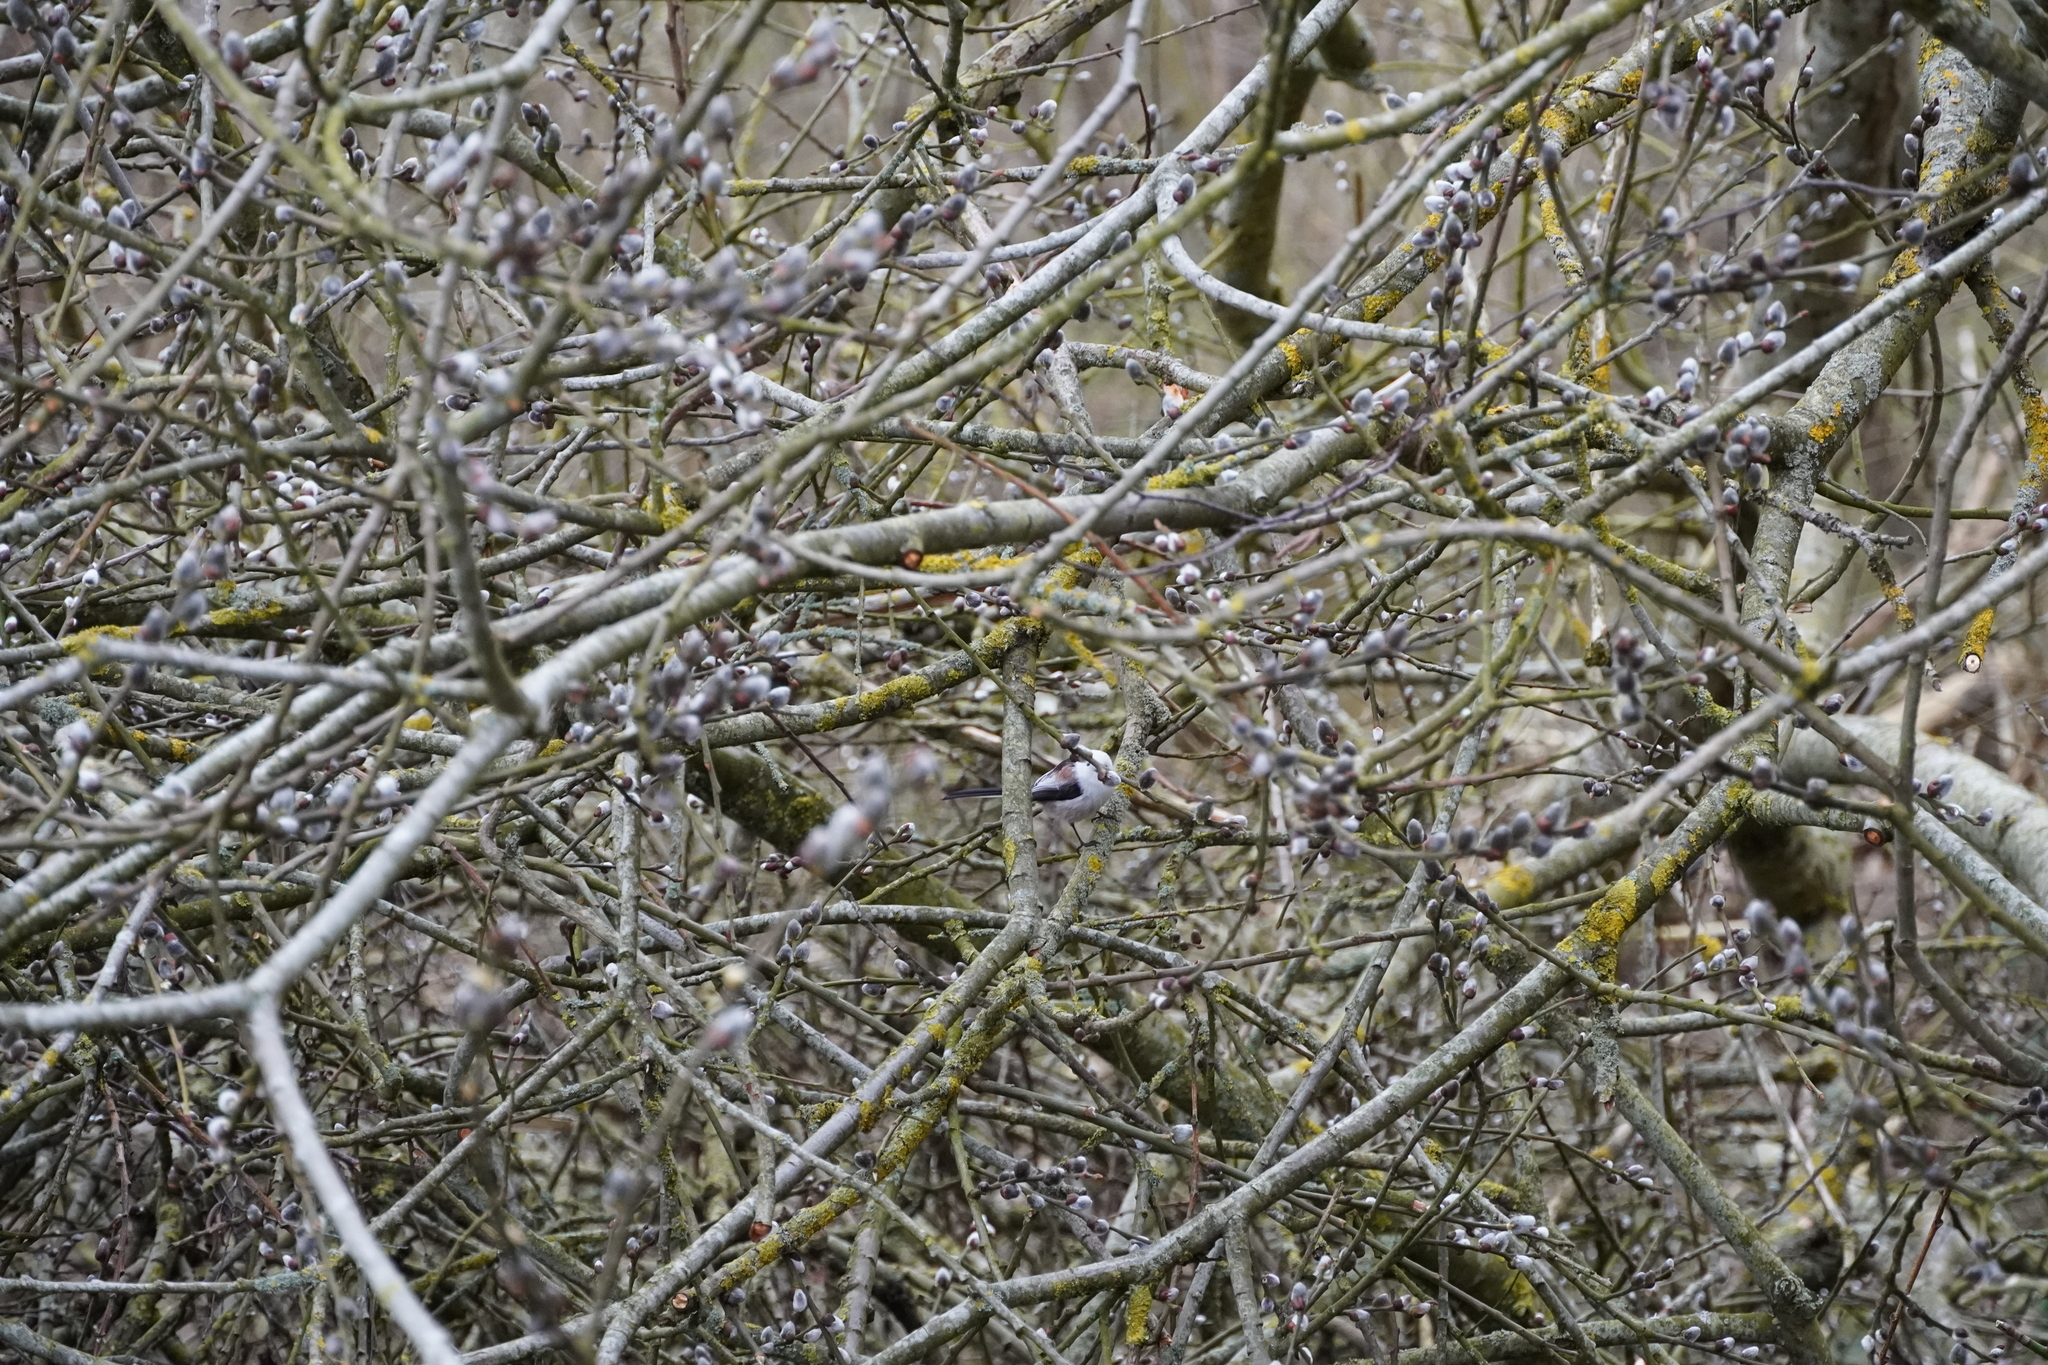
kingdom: Animalia
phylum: Chordata
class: Aves
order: Passeriformes
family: Aegithalidae
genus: Aegithalos
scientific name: Aegithalos caudatus
